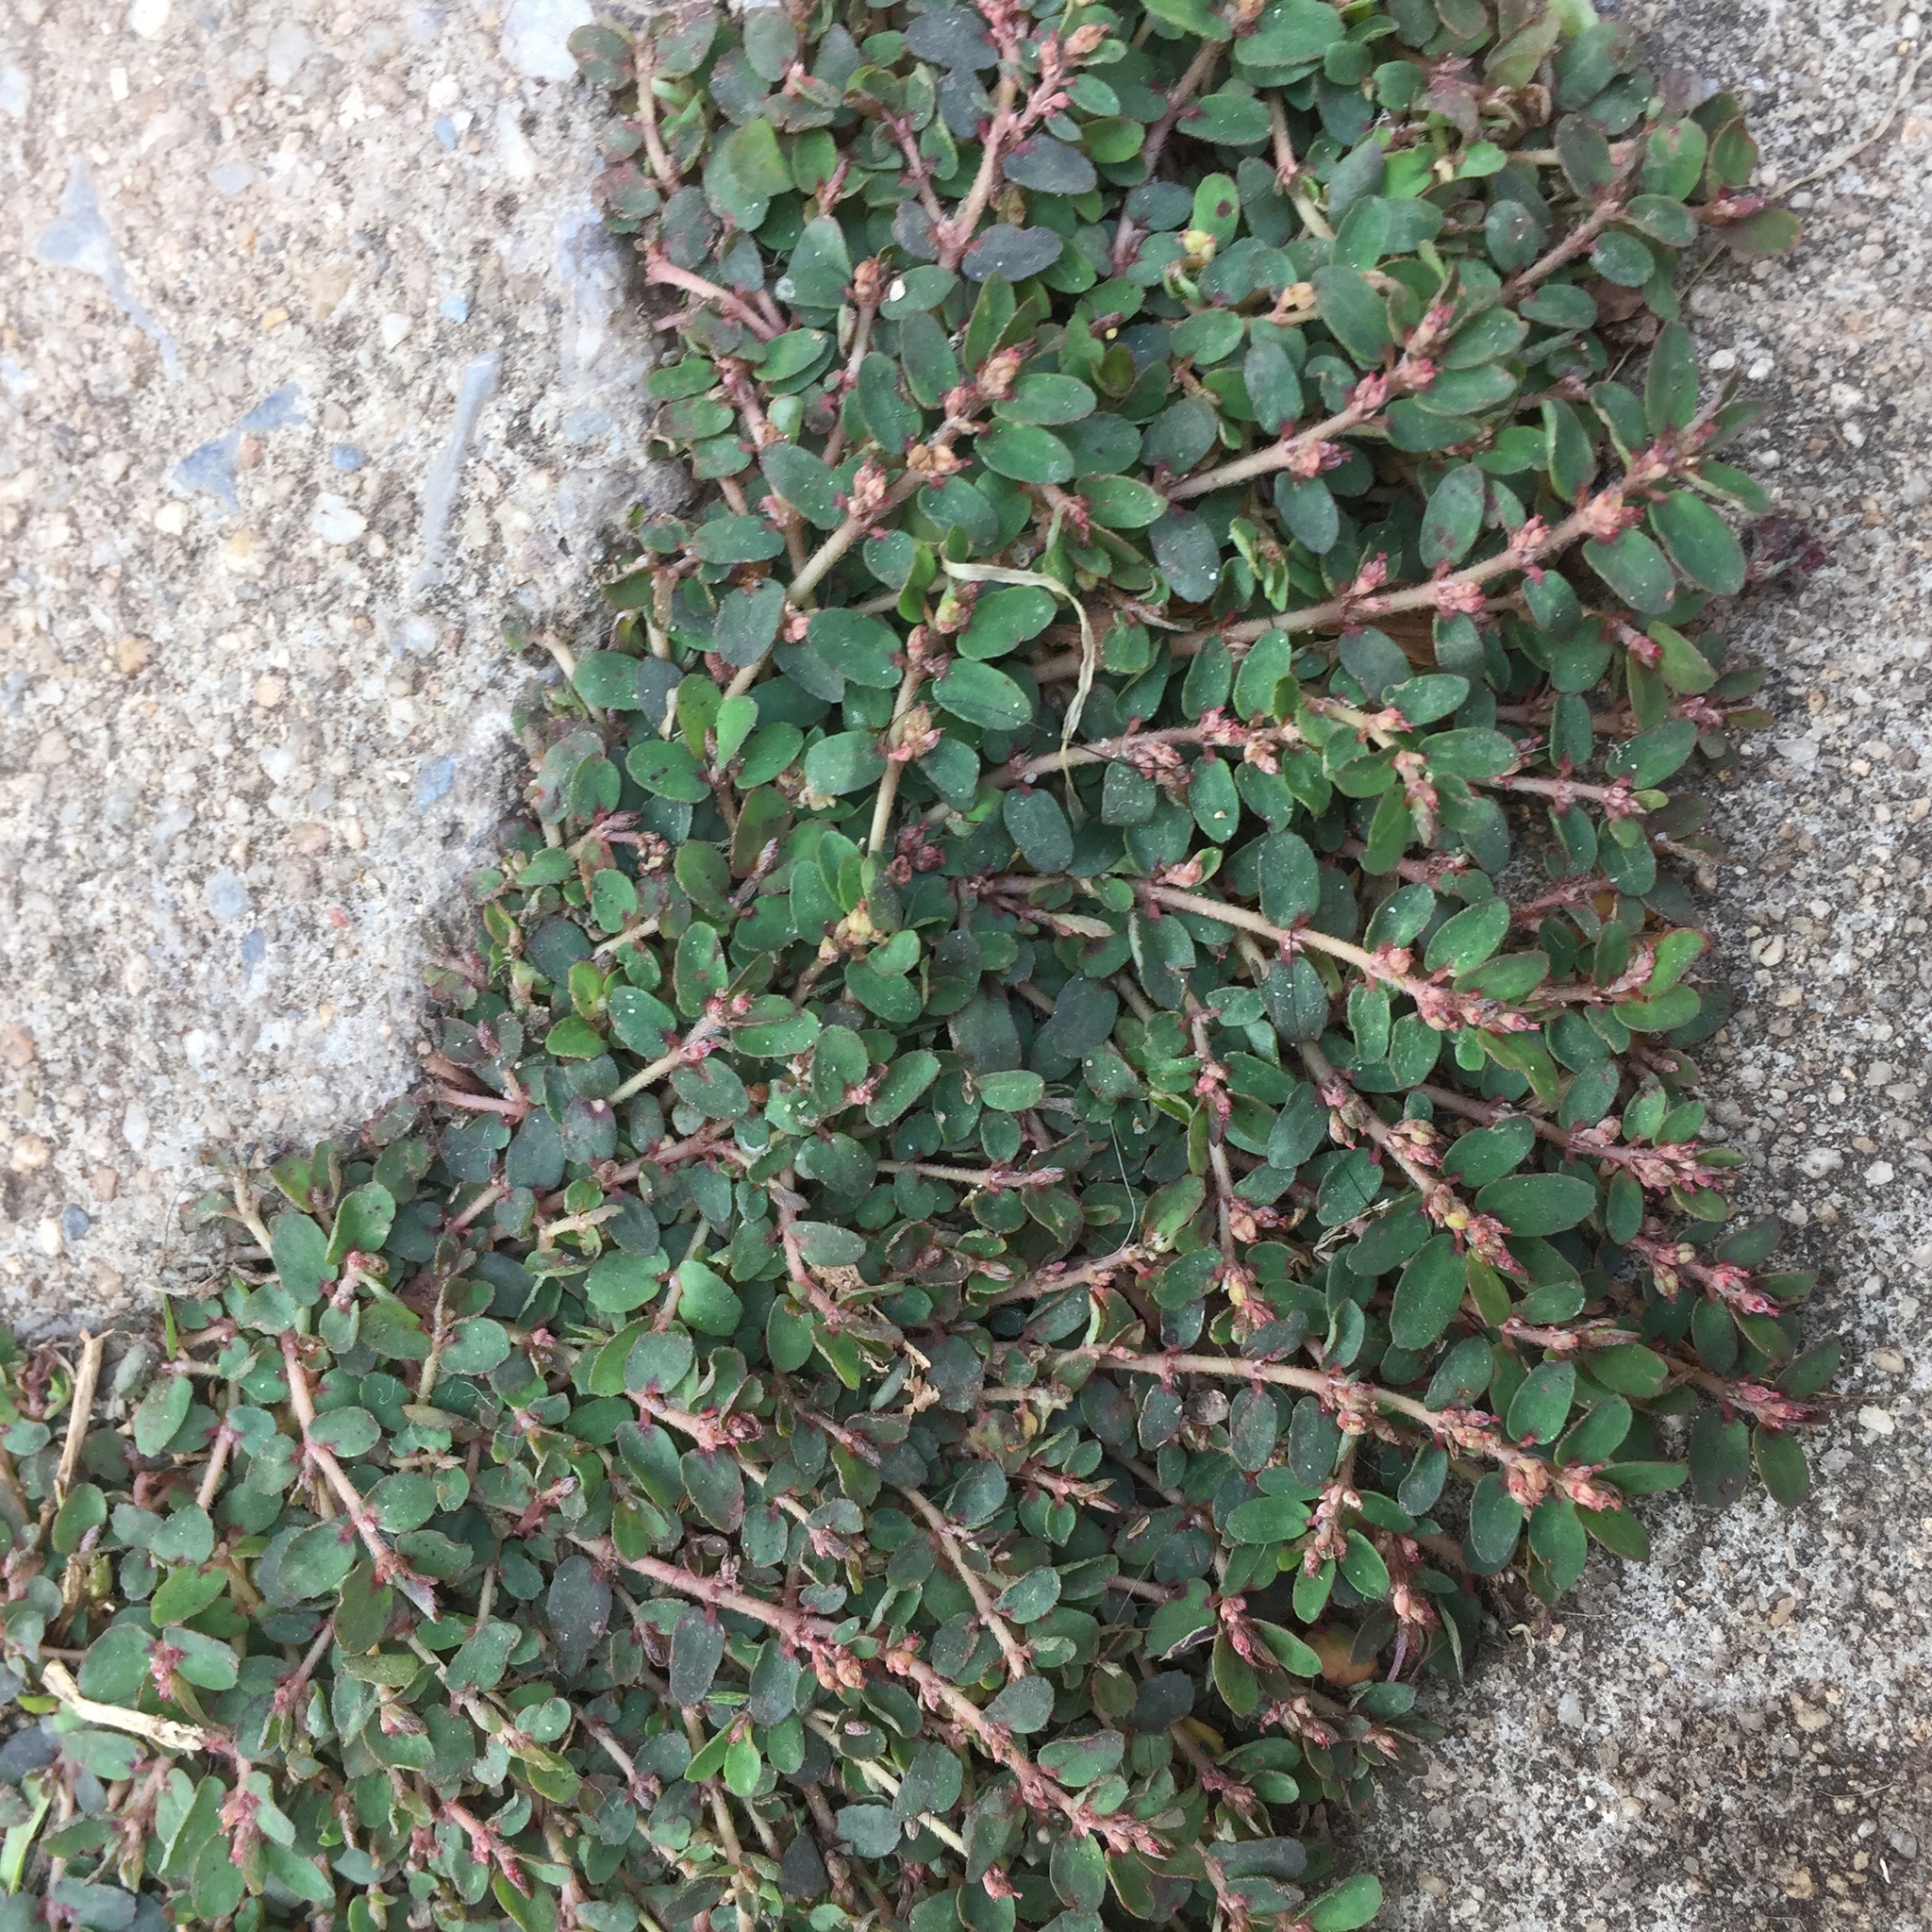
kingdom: Plantae
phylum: Tracheophyta
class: Magnoliopsida
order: Malpighiales
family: Euphorbiaceae
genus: Euphorbia
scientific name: Euphorbia thymifolia
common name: Gulf sandmat
